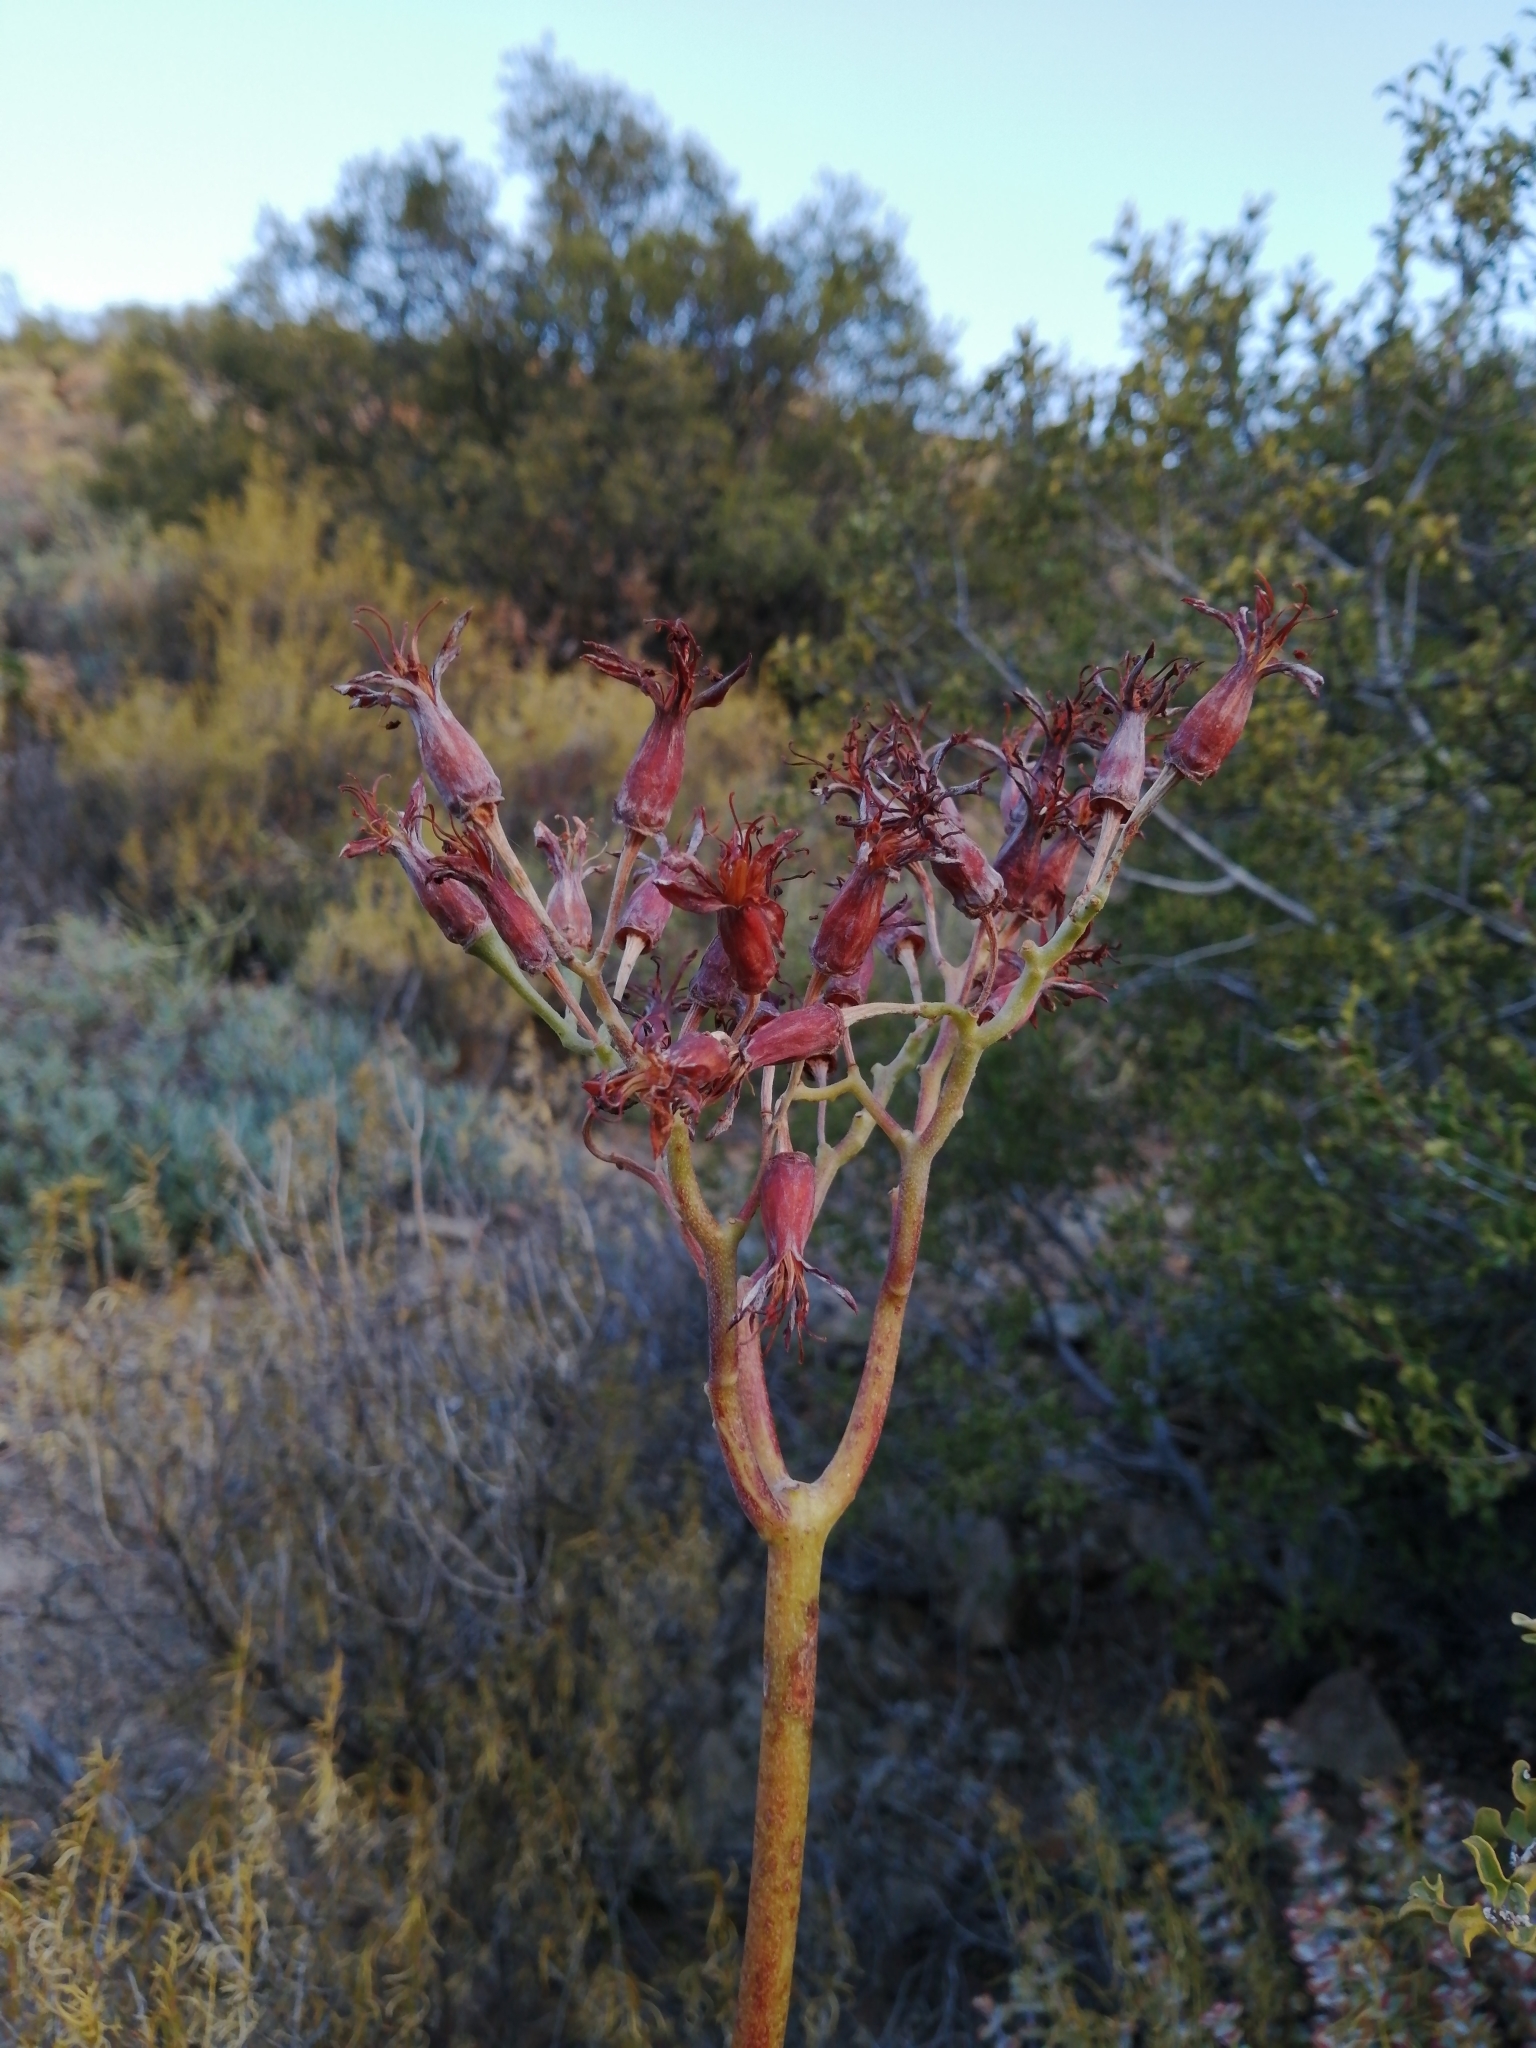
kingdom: Plantae
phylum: Tracheophyta
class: Magnoliopsida
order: Saxifragales
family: Crassulaceae
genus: Cotyledon
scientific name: Cotyledon orbiculata
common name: Pig's ear
